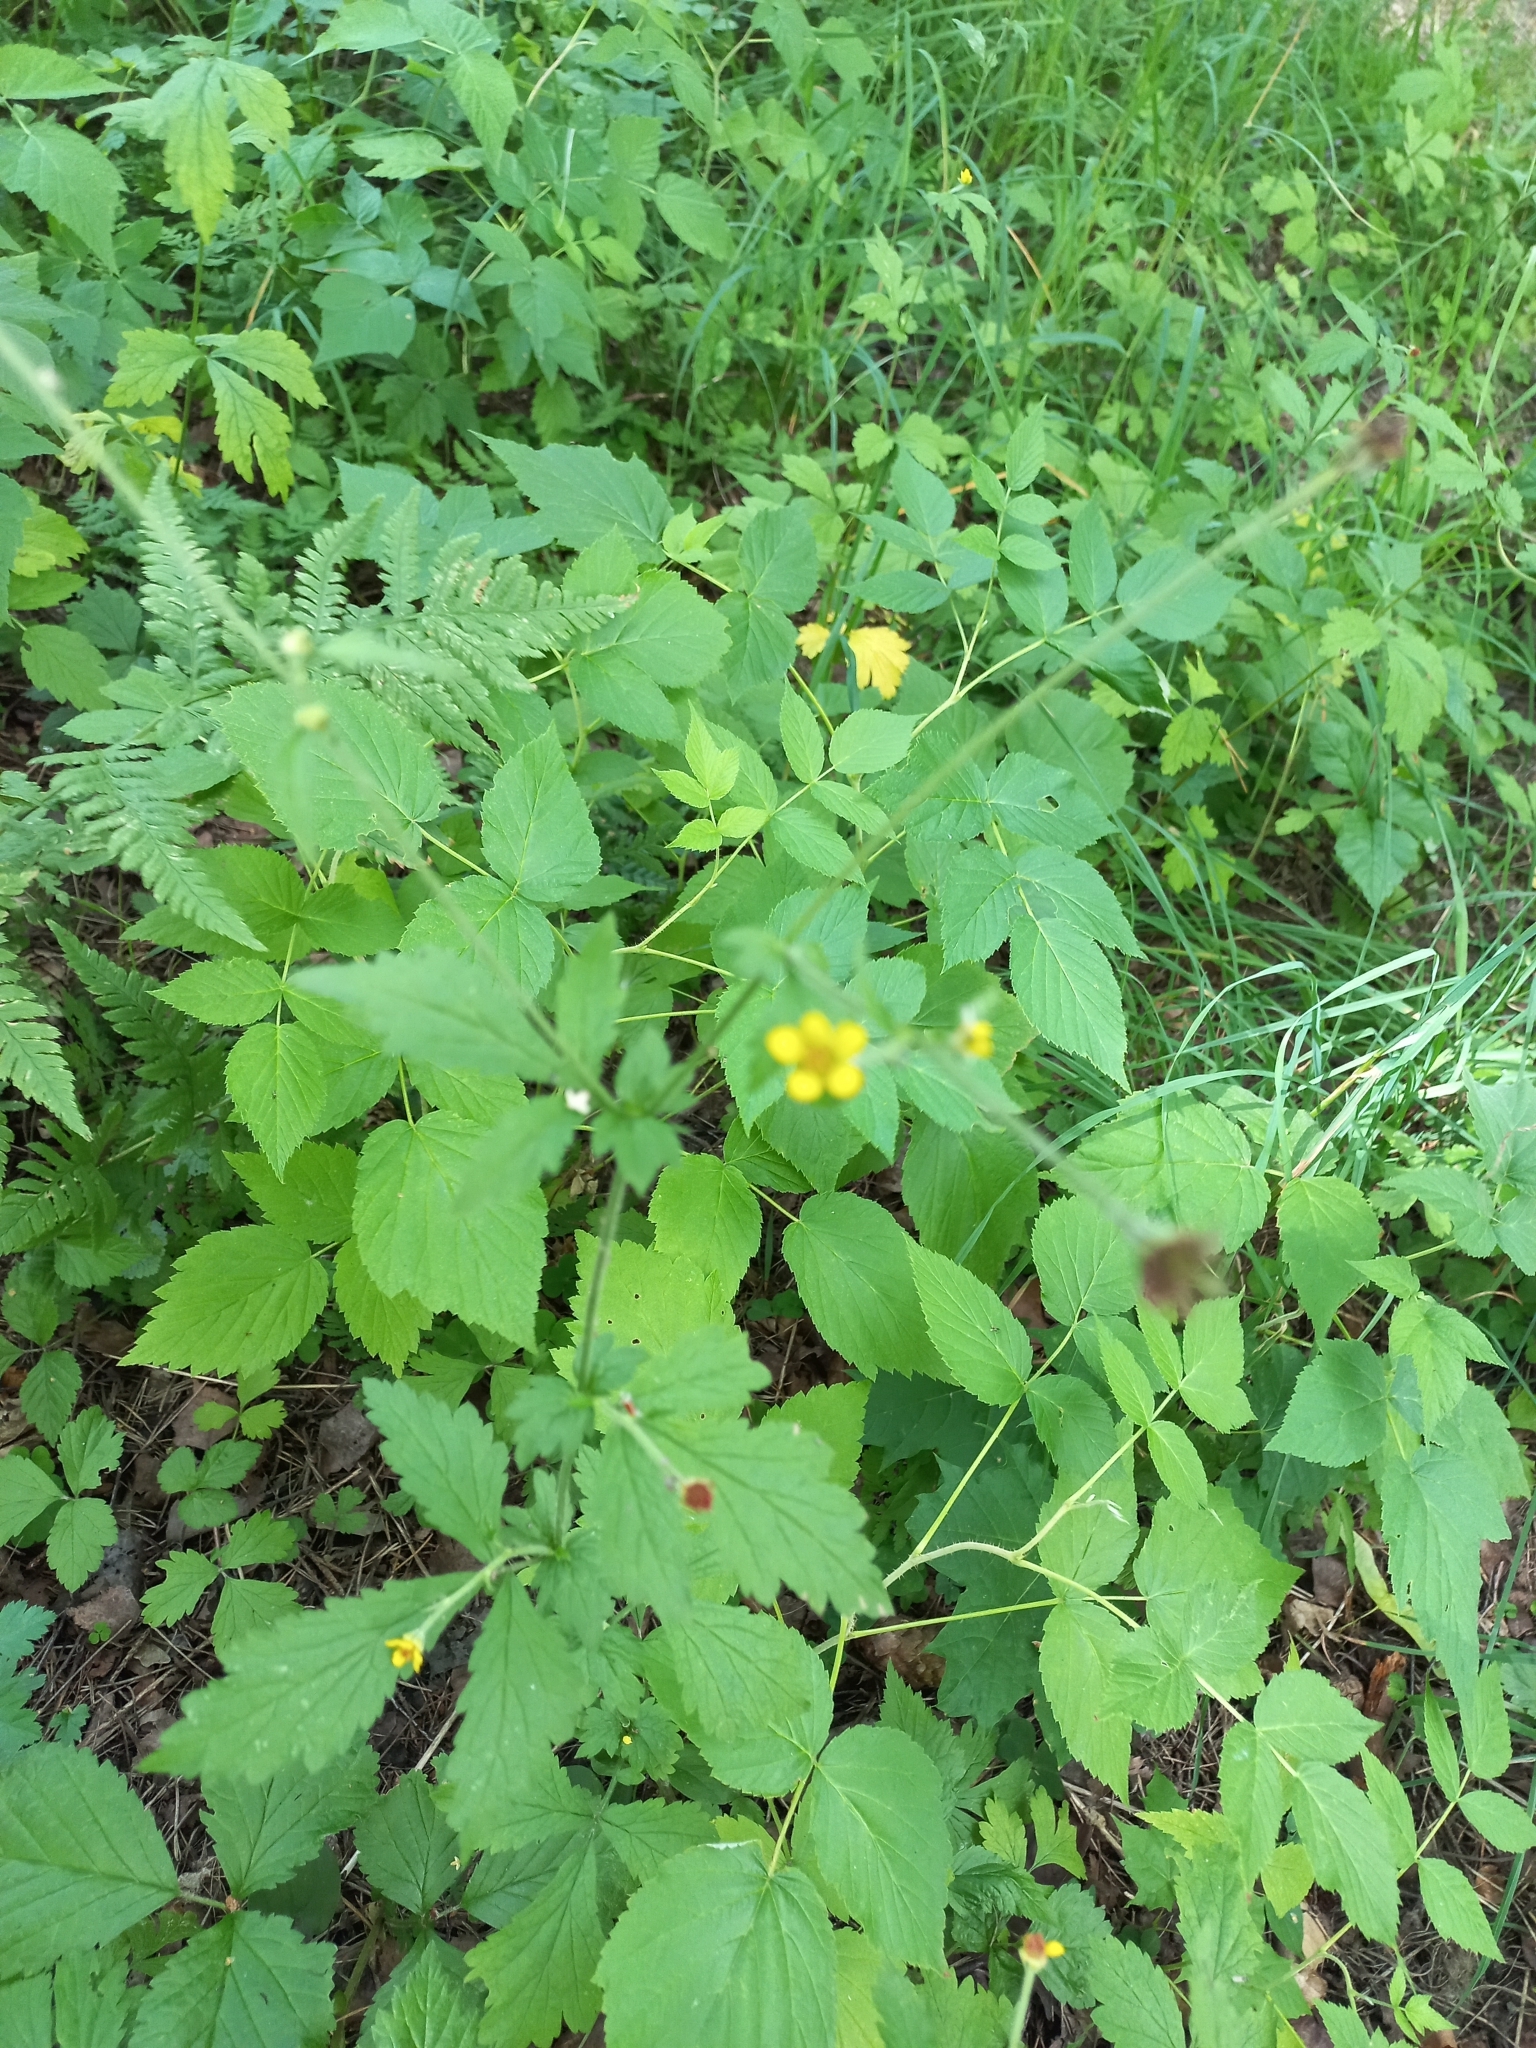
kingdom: Plantae
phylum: Tracheophyta
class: Magnoliopsida
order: Rosales
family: Rosaceae
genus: Geum
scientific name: Geum urbanum
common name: Wood avens
